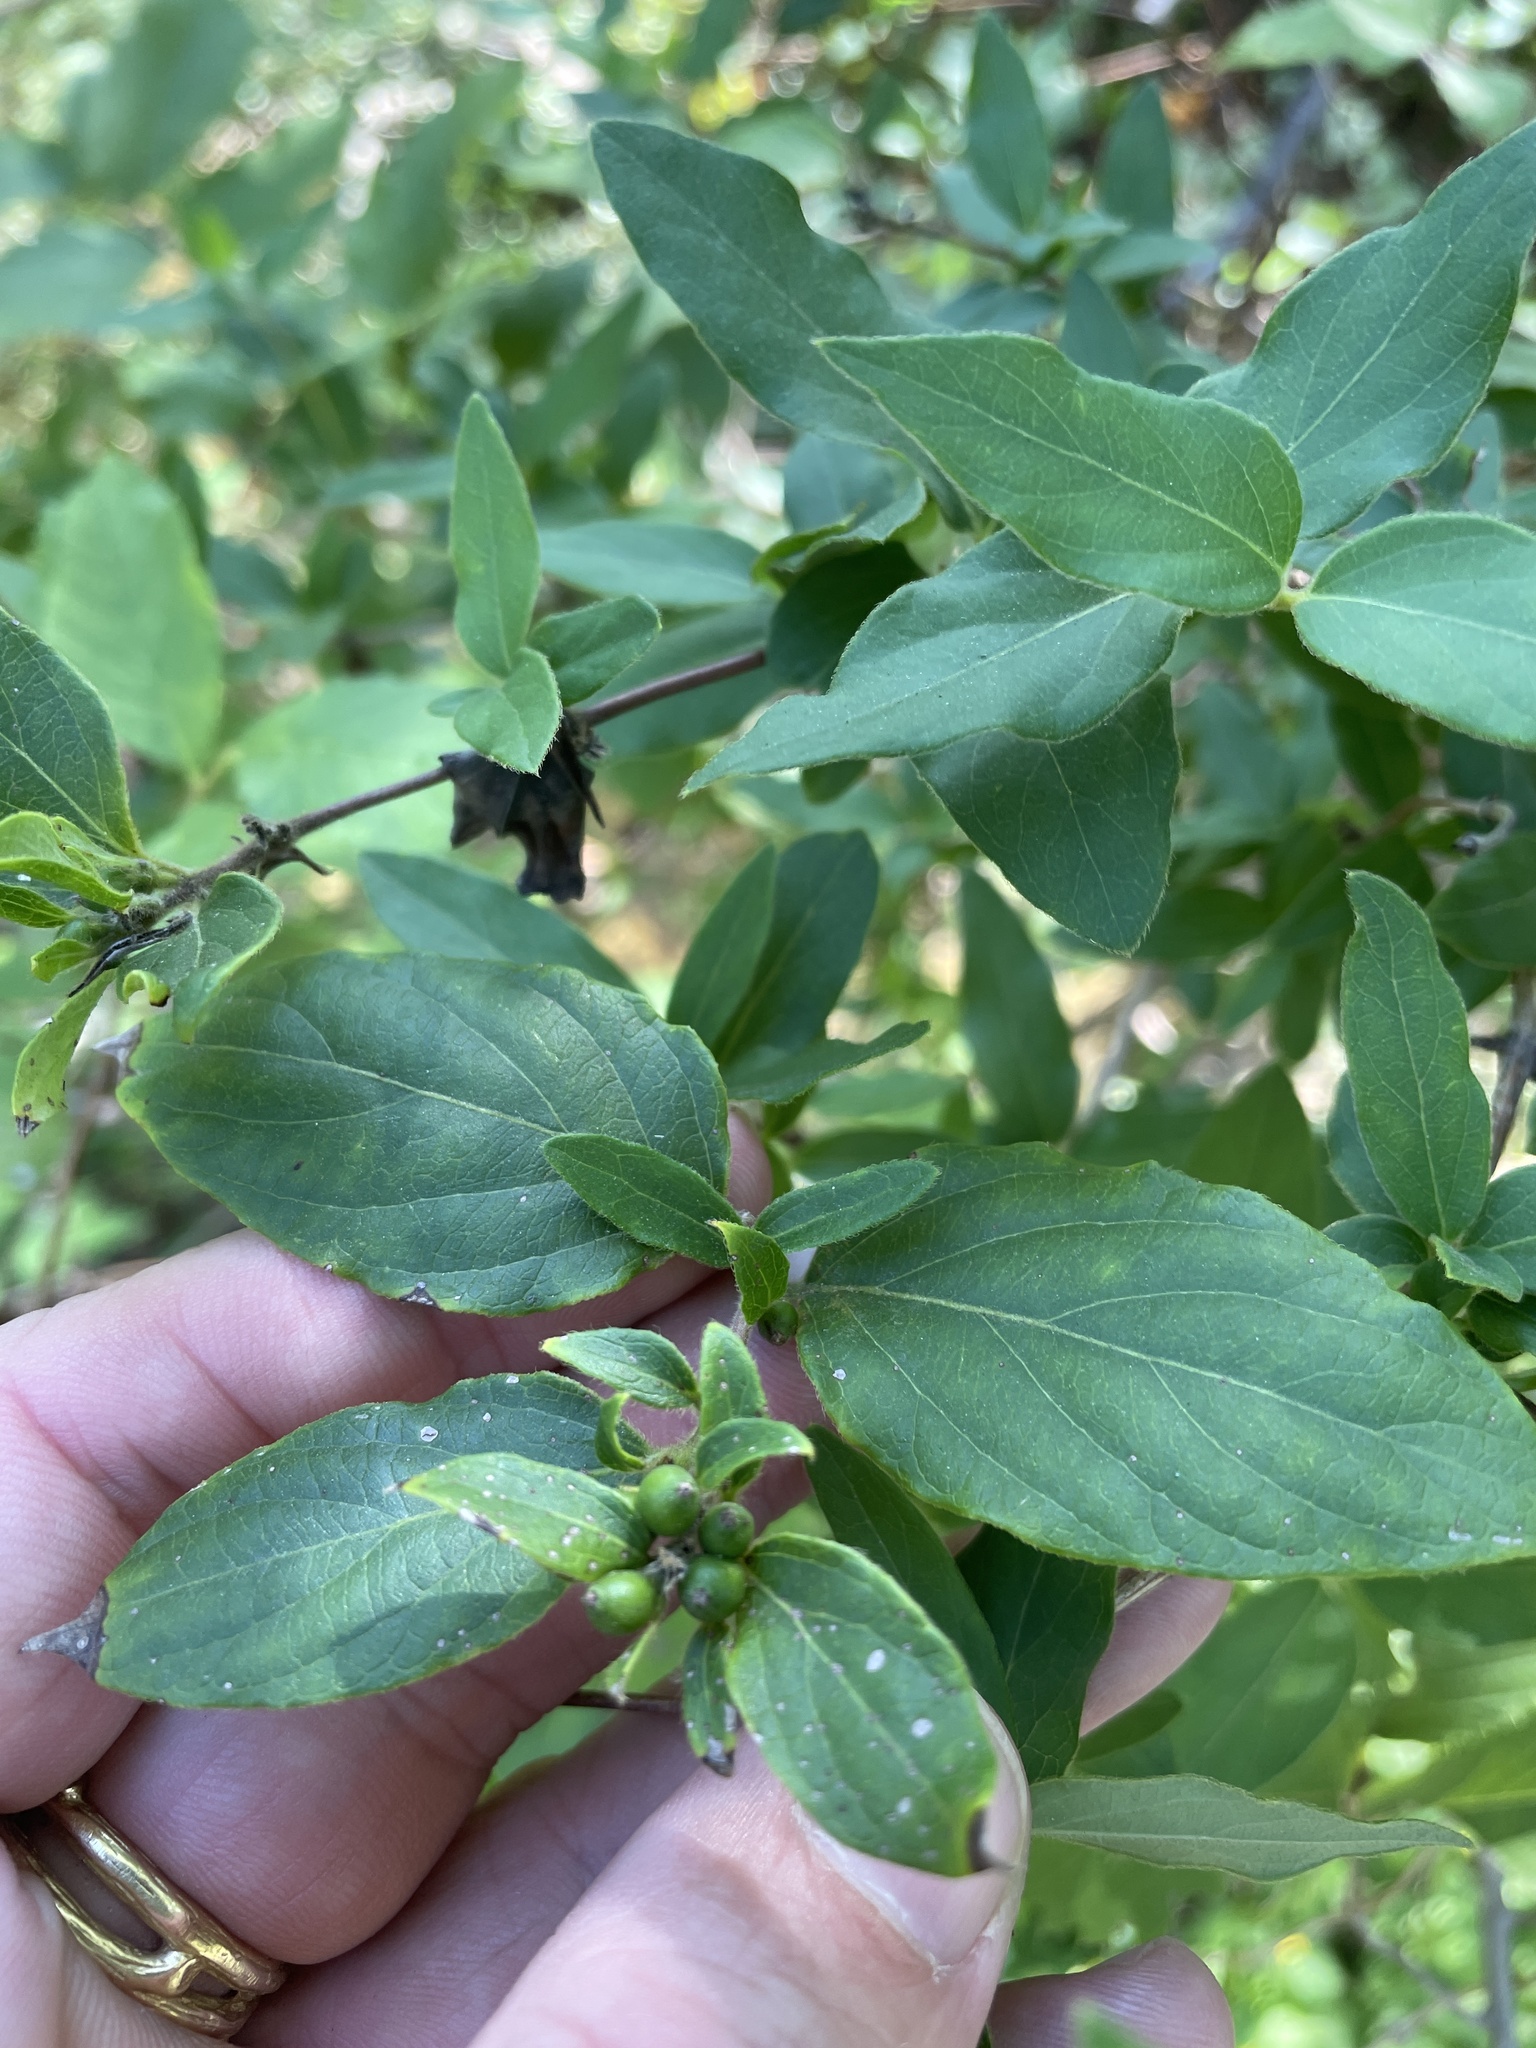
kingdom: Plantae
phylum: Tracheophyta
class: Magnoliopsida
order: Dipsacales
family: Caprifoliaceae
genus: Lonicera
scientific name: Lonicera japonica
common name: Japanese honeysuckle
